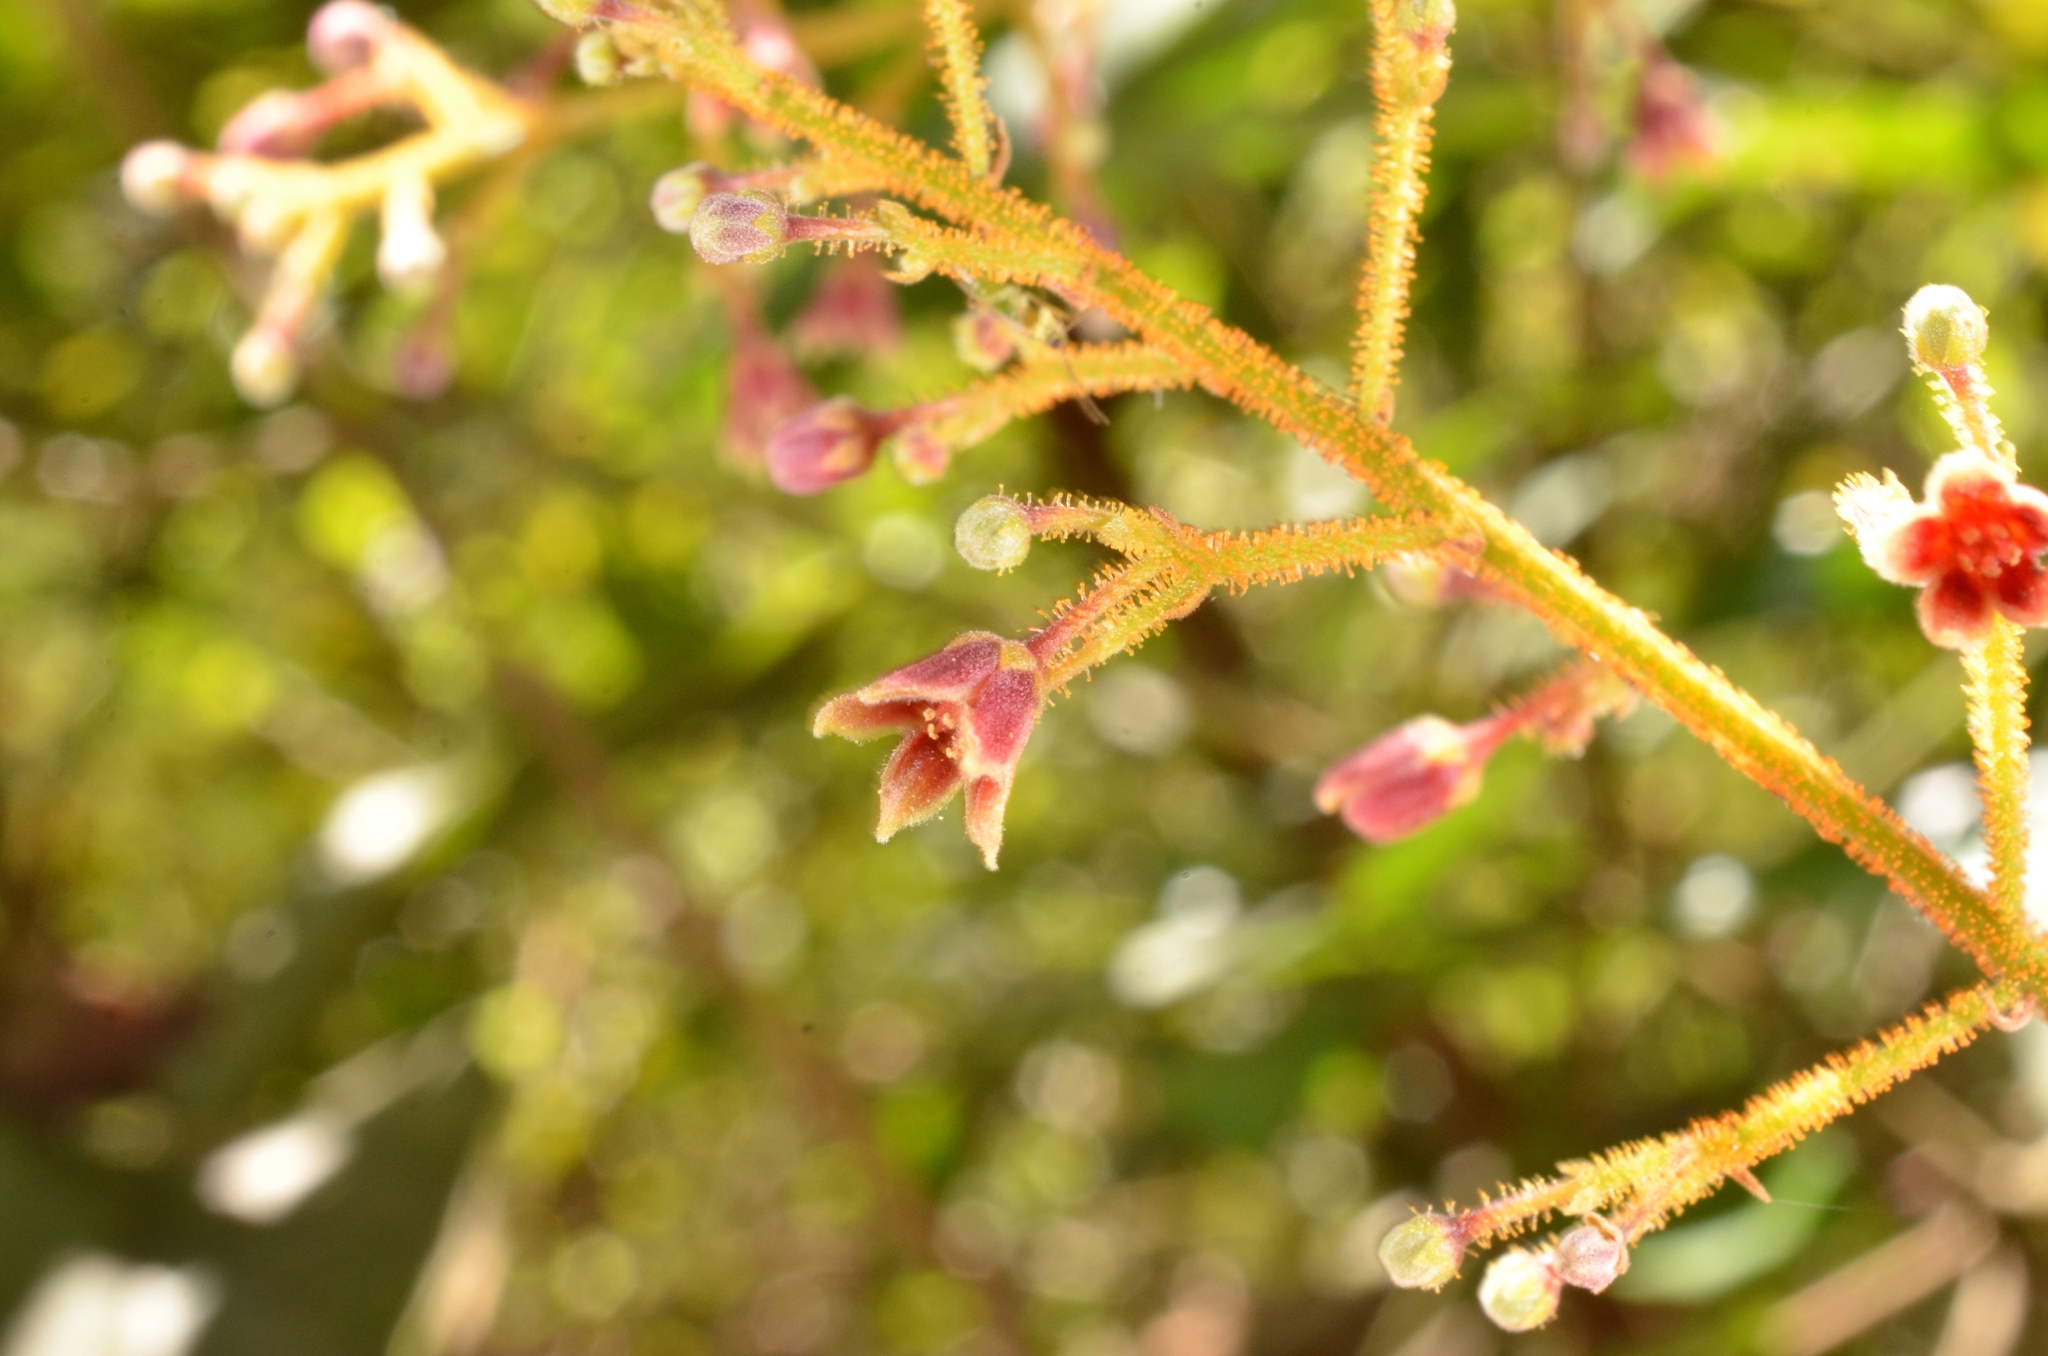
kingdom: Plantae
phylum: Tracheophyta
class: Magnoliopsida
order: Sapindales
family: Simaroubaceae
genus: Eurycoma
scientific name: Eurycoma longifolia
